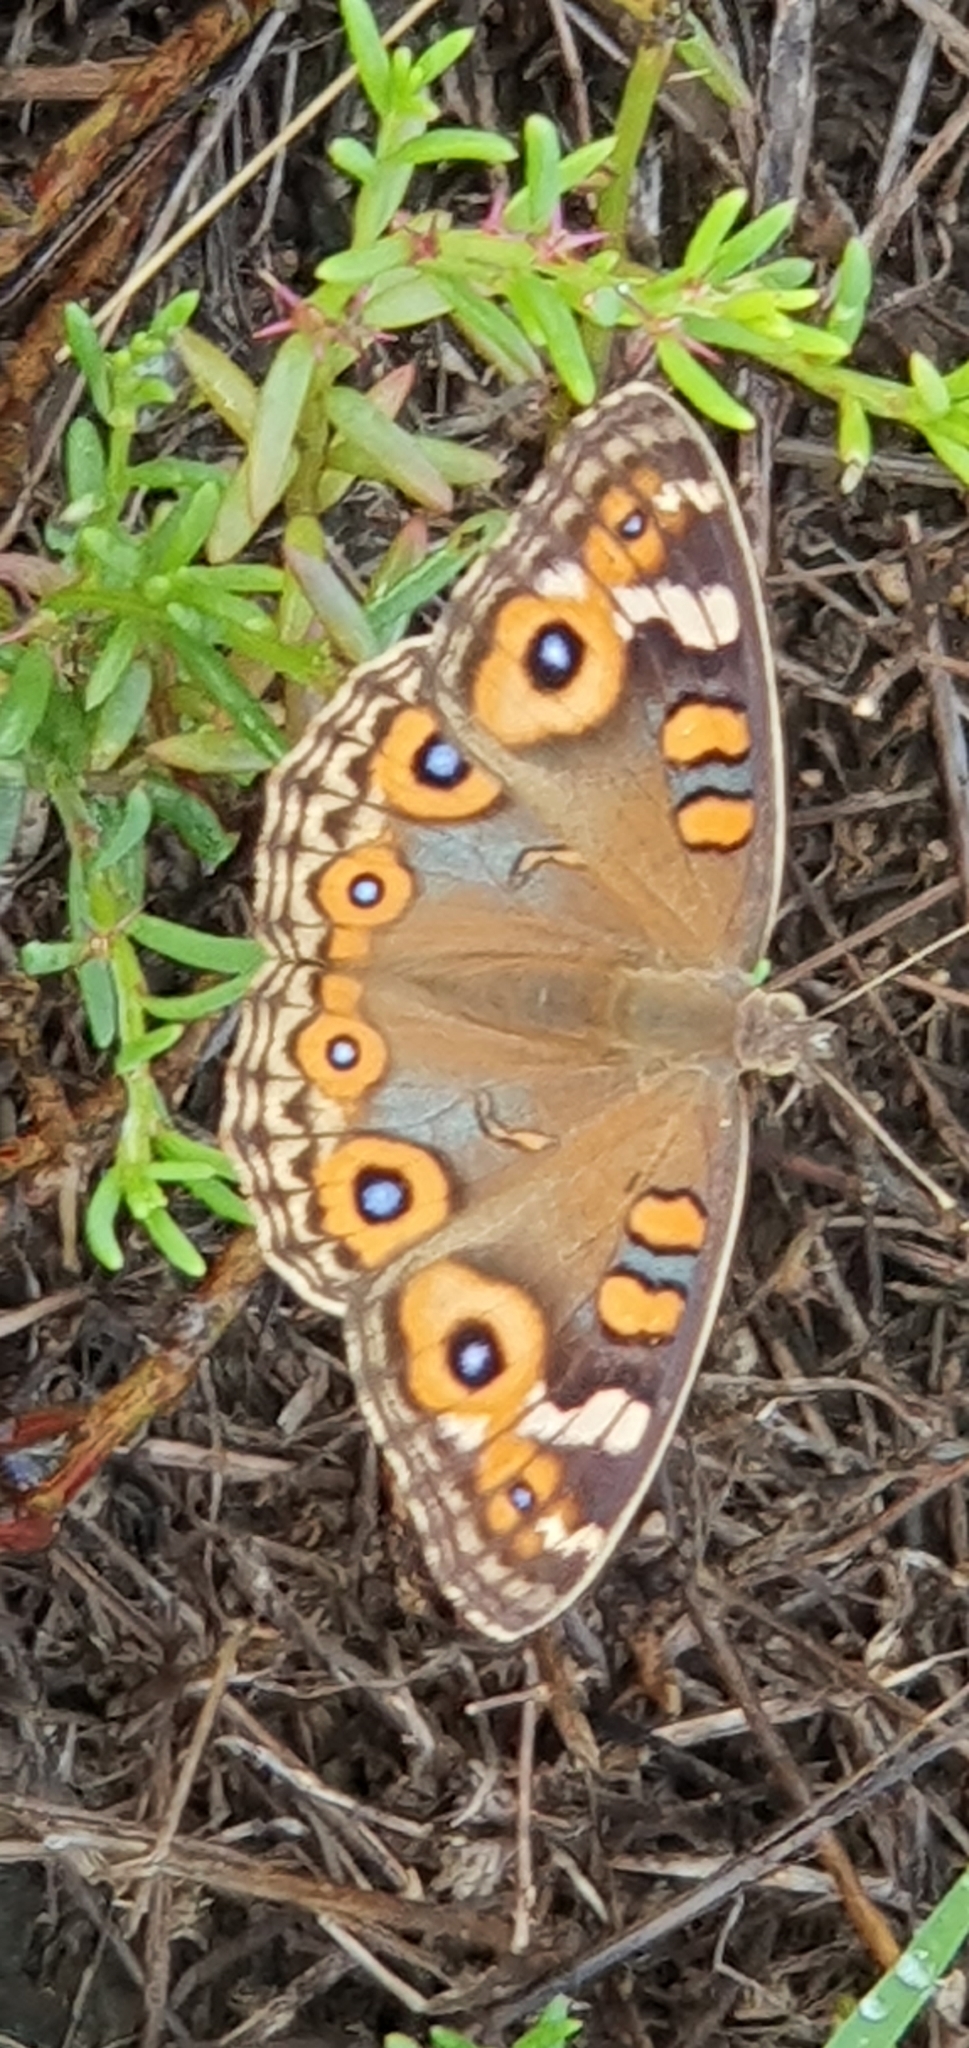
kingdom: Animalia
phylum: Arthropoda
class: Insecta
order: Lepidoptera
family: Nymphalidae
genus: Junonia
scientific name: Junonia villida
